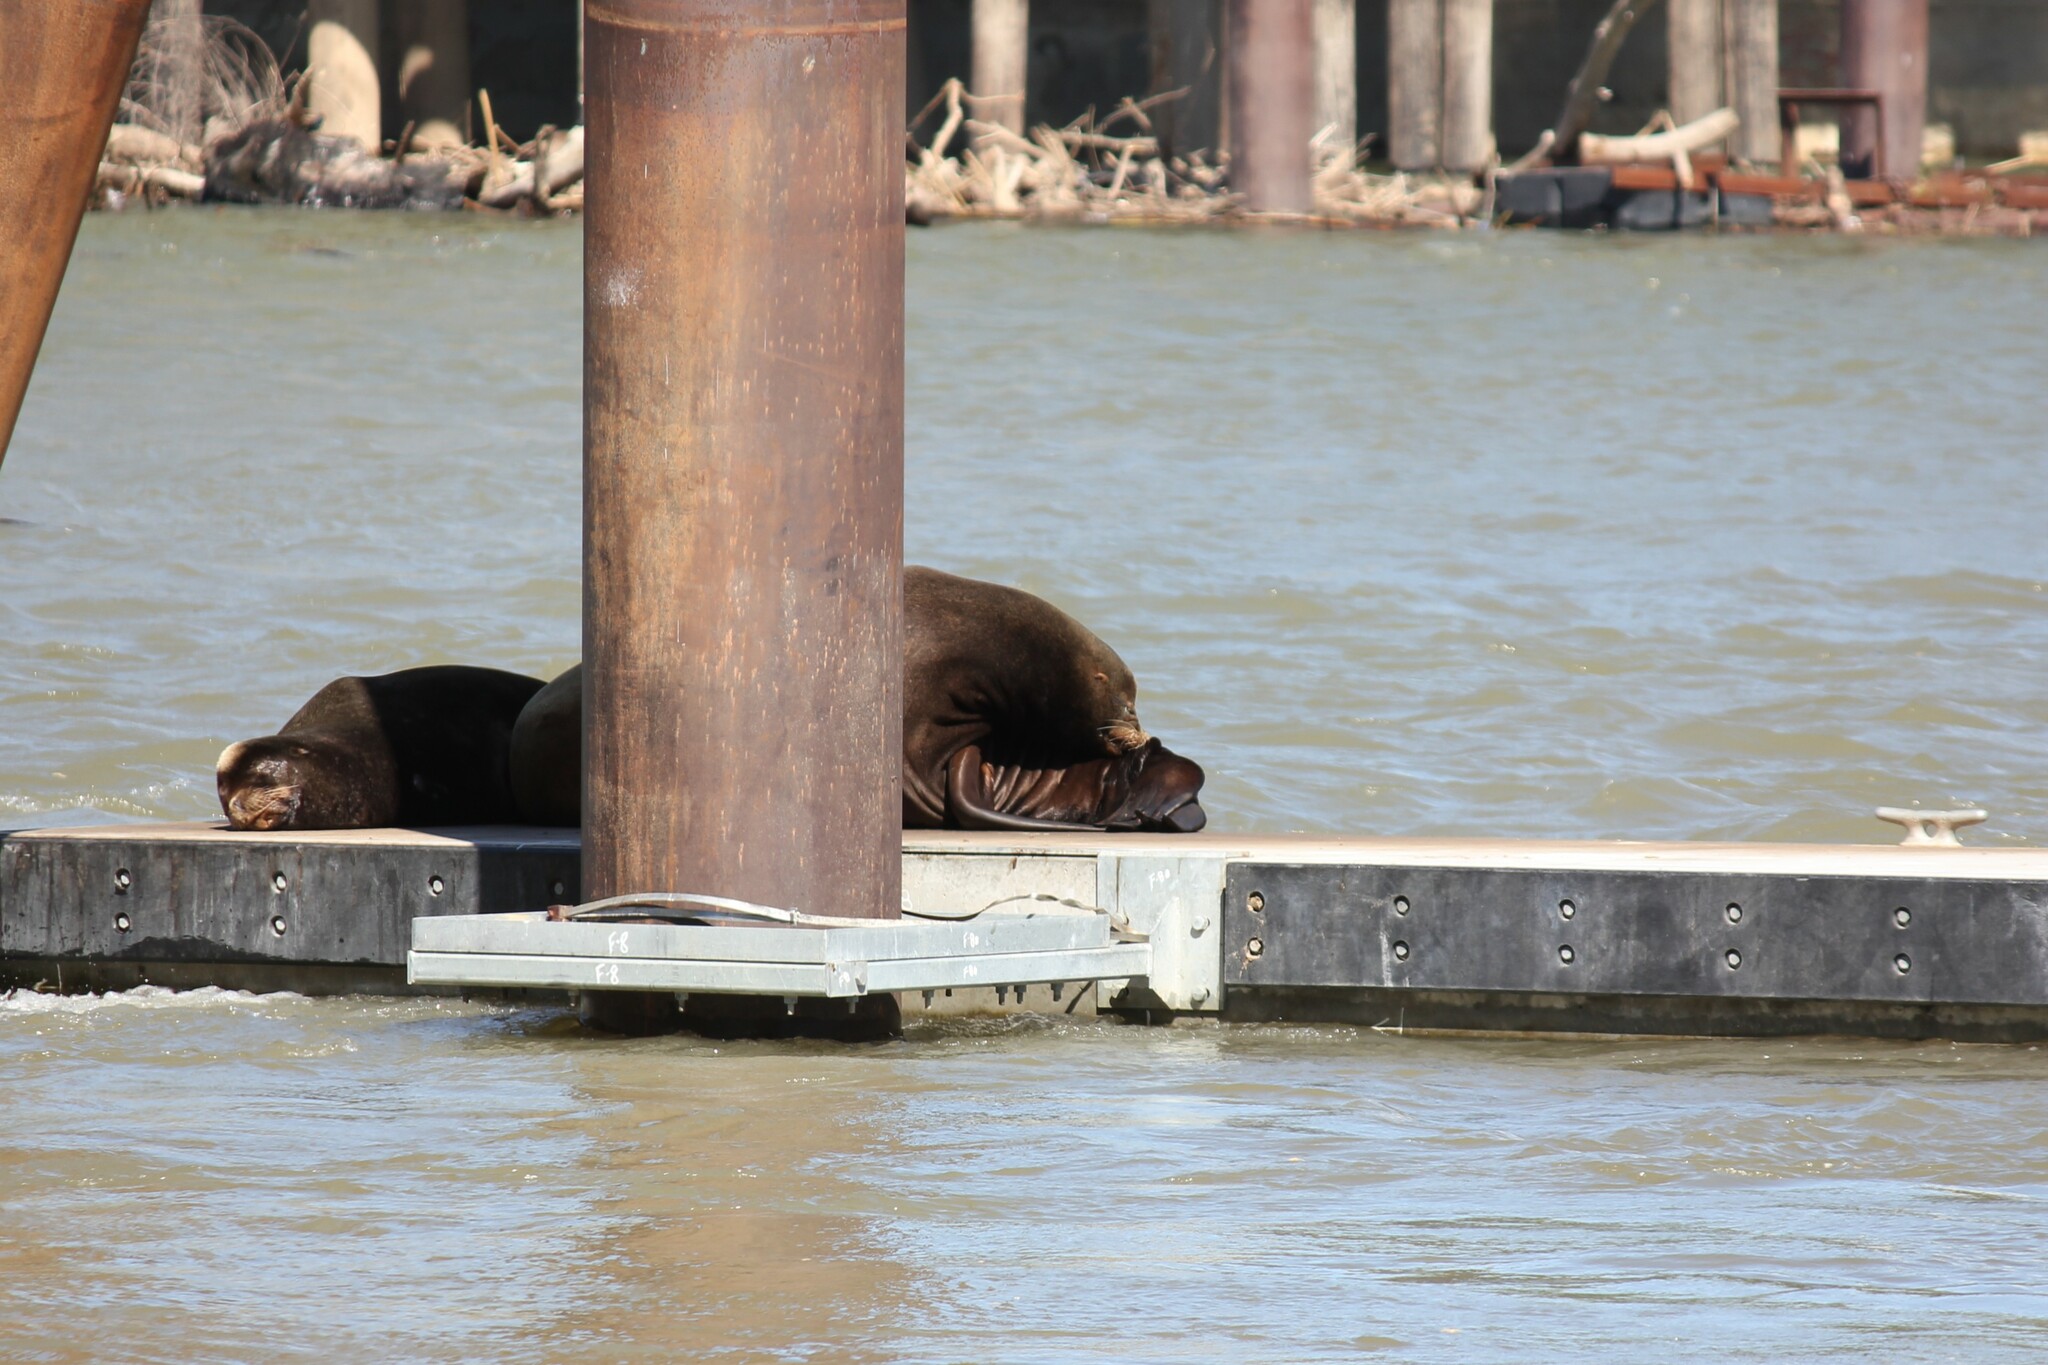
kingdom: Animalia
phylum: Chordata
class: Mammalia
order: Carnivora
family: Otariidae
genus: Zalophus
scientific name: Zalophus californianus
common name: California sea lion
